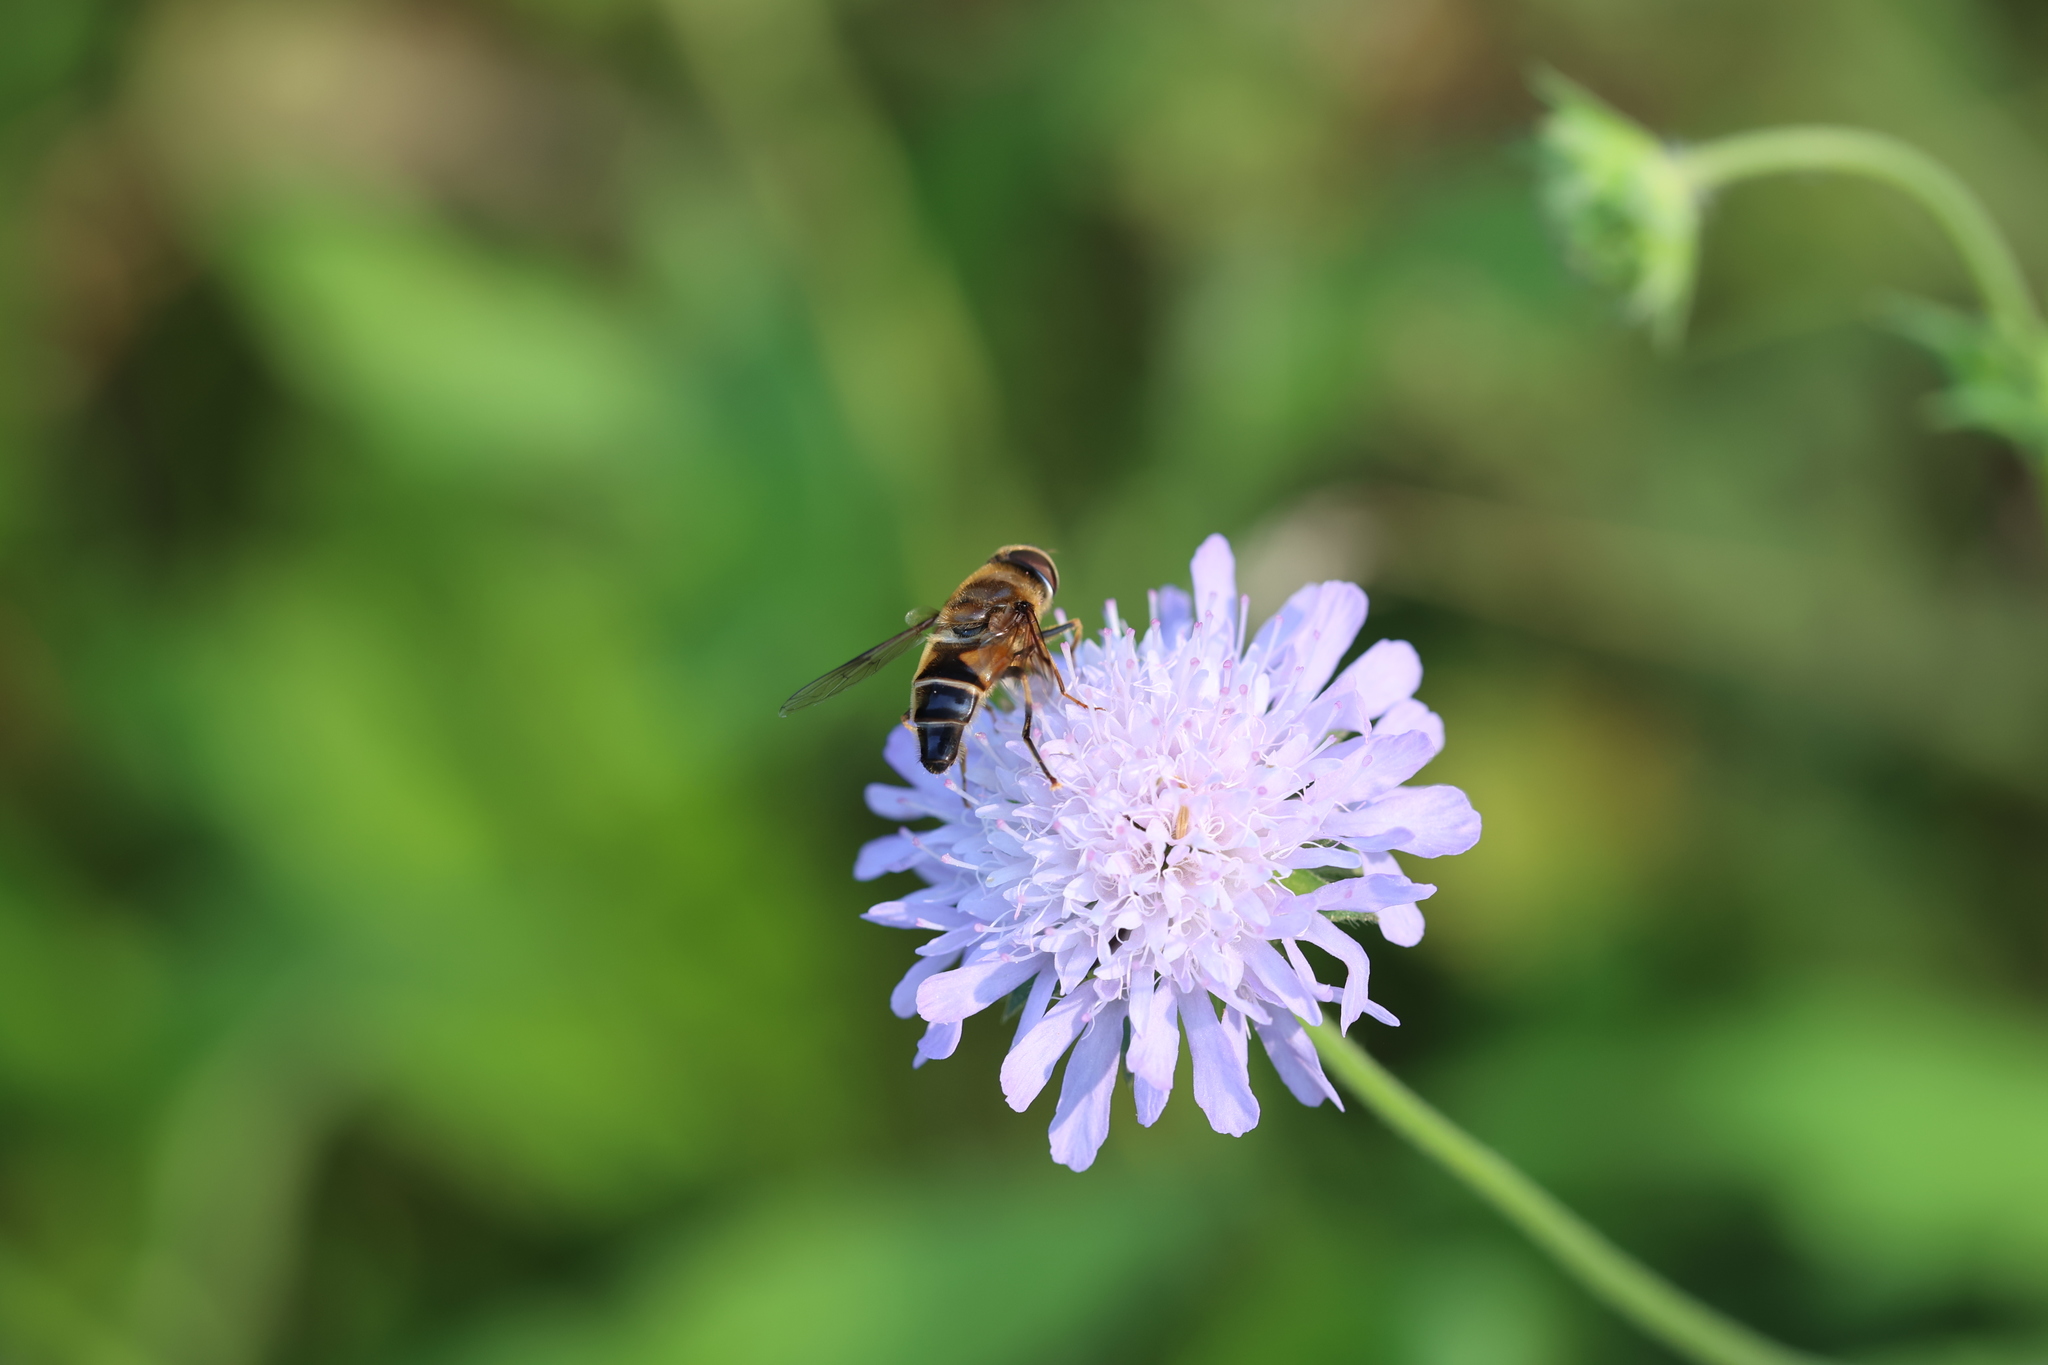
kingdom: Animalia
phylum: Arthropoda
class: Insecta
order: Diptera
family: Syrphidae
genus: Eristalis
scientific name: Eristalis pertinax
